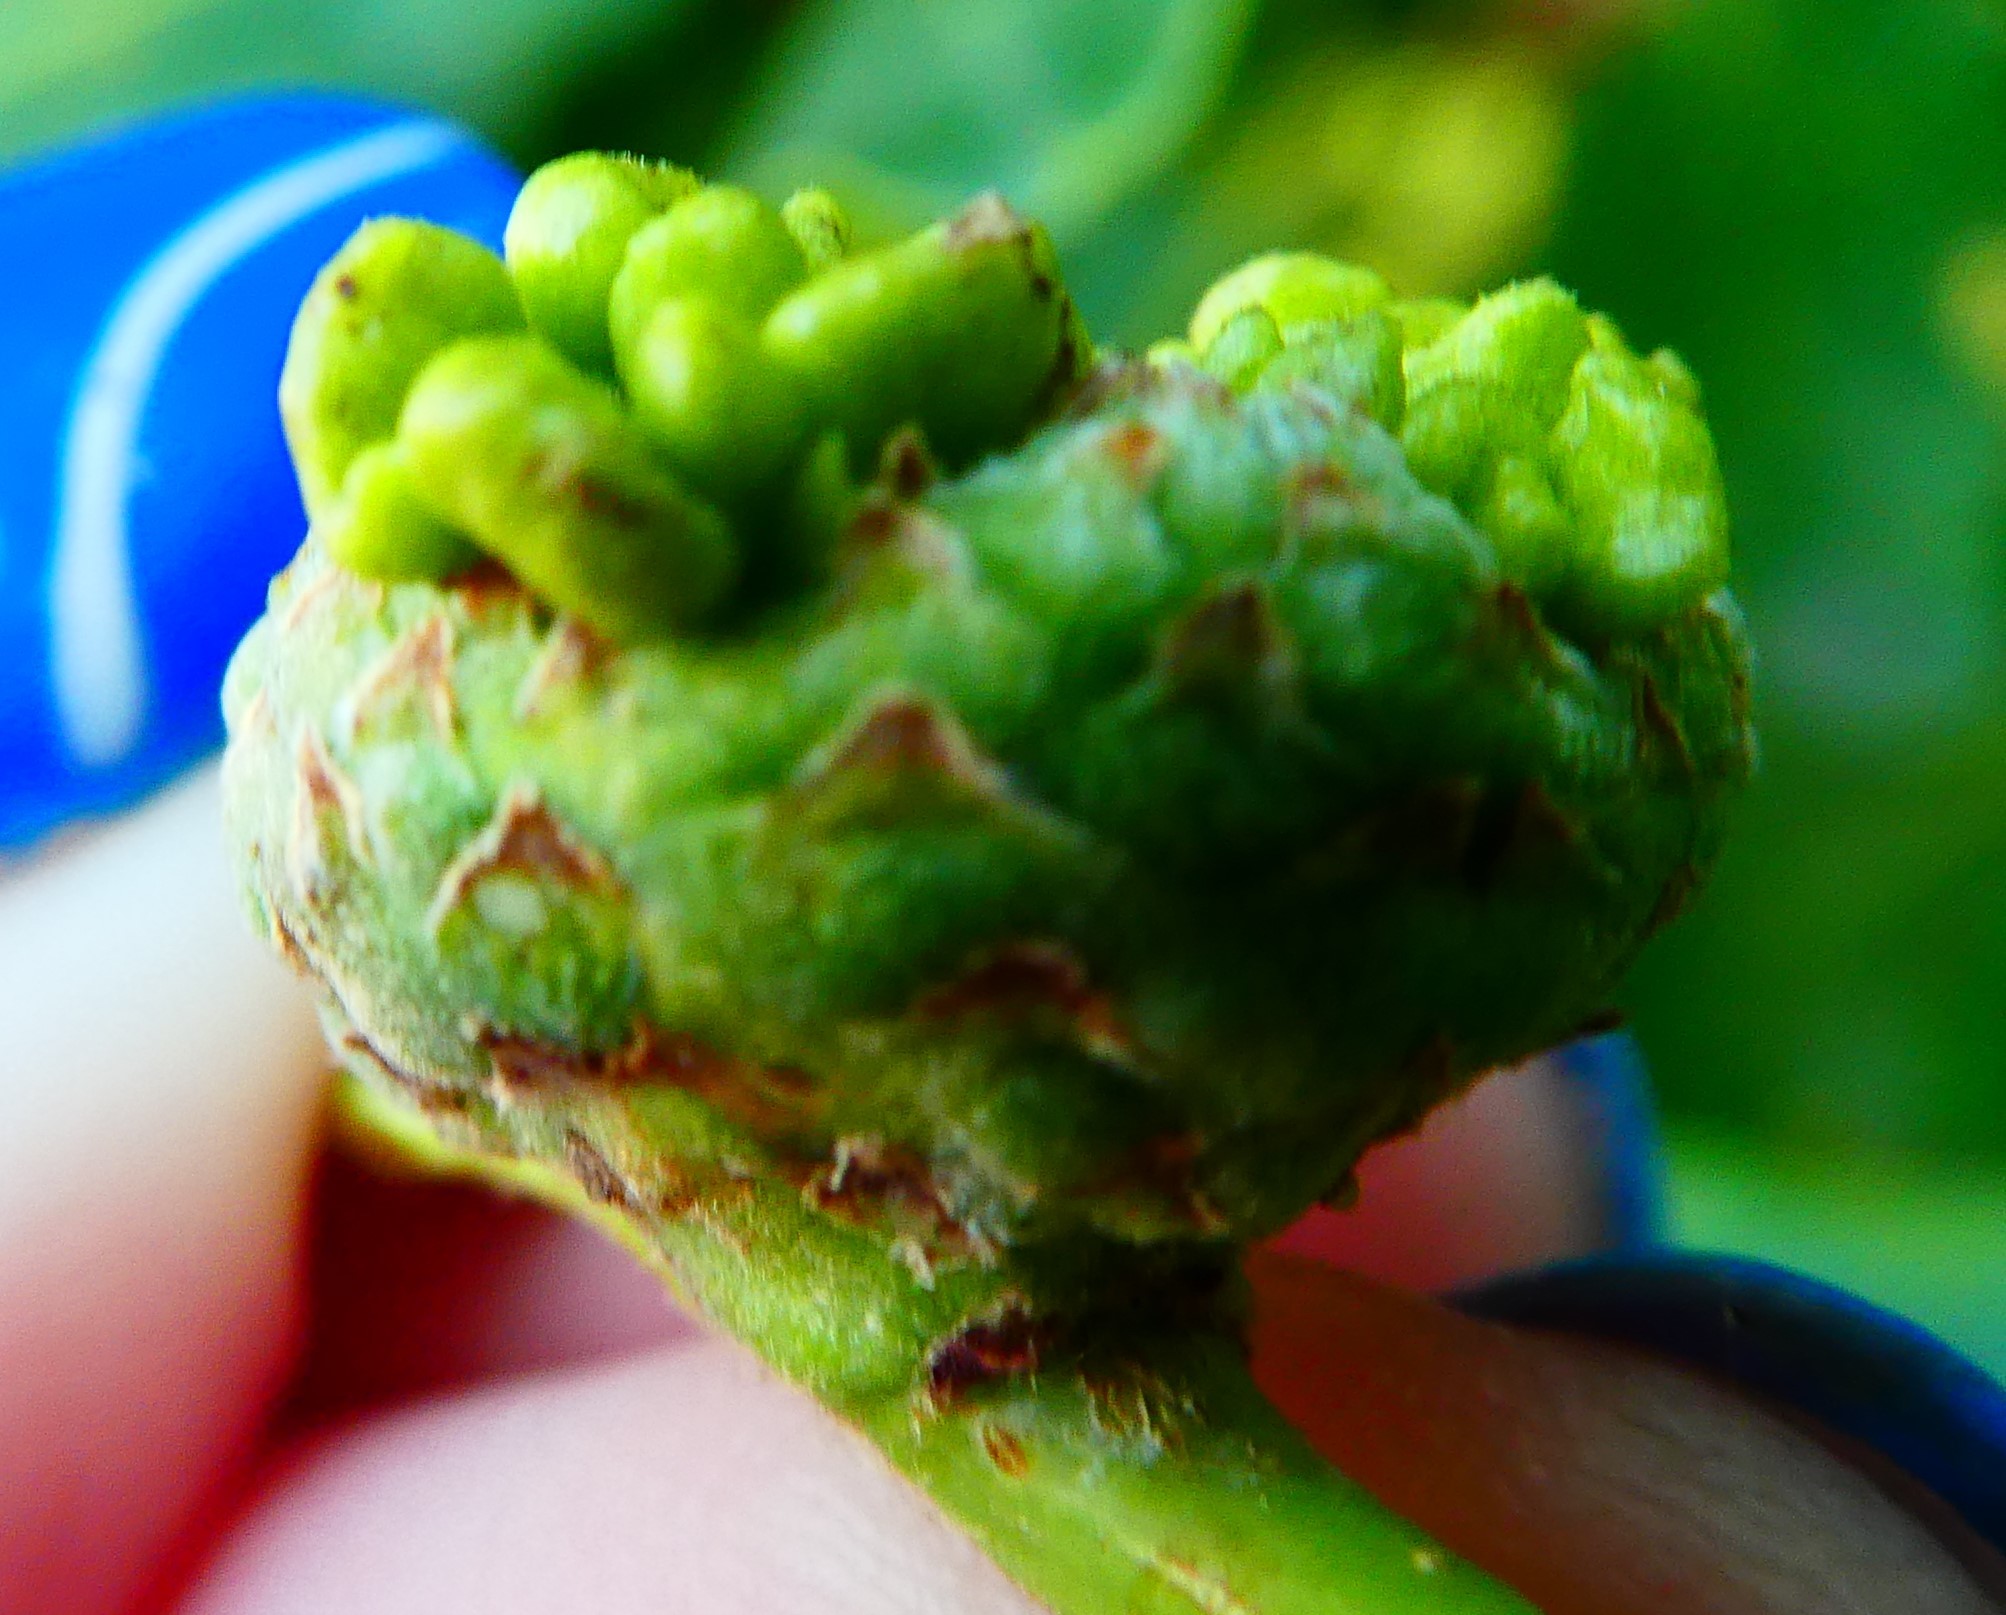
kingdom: Animalia
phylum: Arthropoda
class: Insecta
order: Hymenoptera
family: Cynipidae
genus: Andricus
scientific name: Andricus quercuscalicis
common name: Knopper gall
